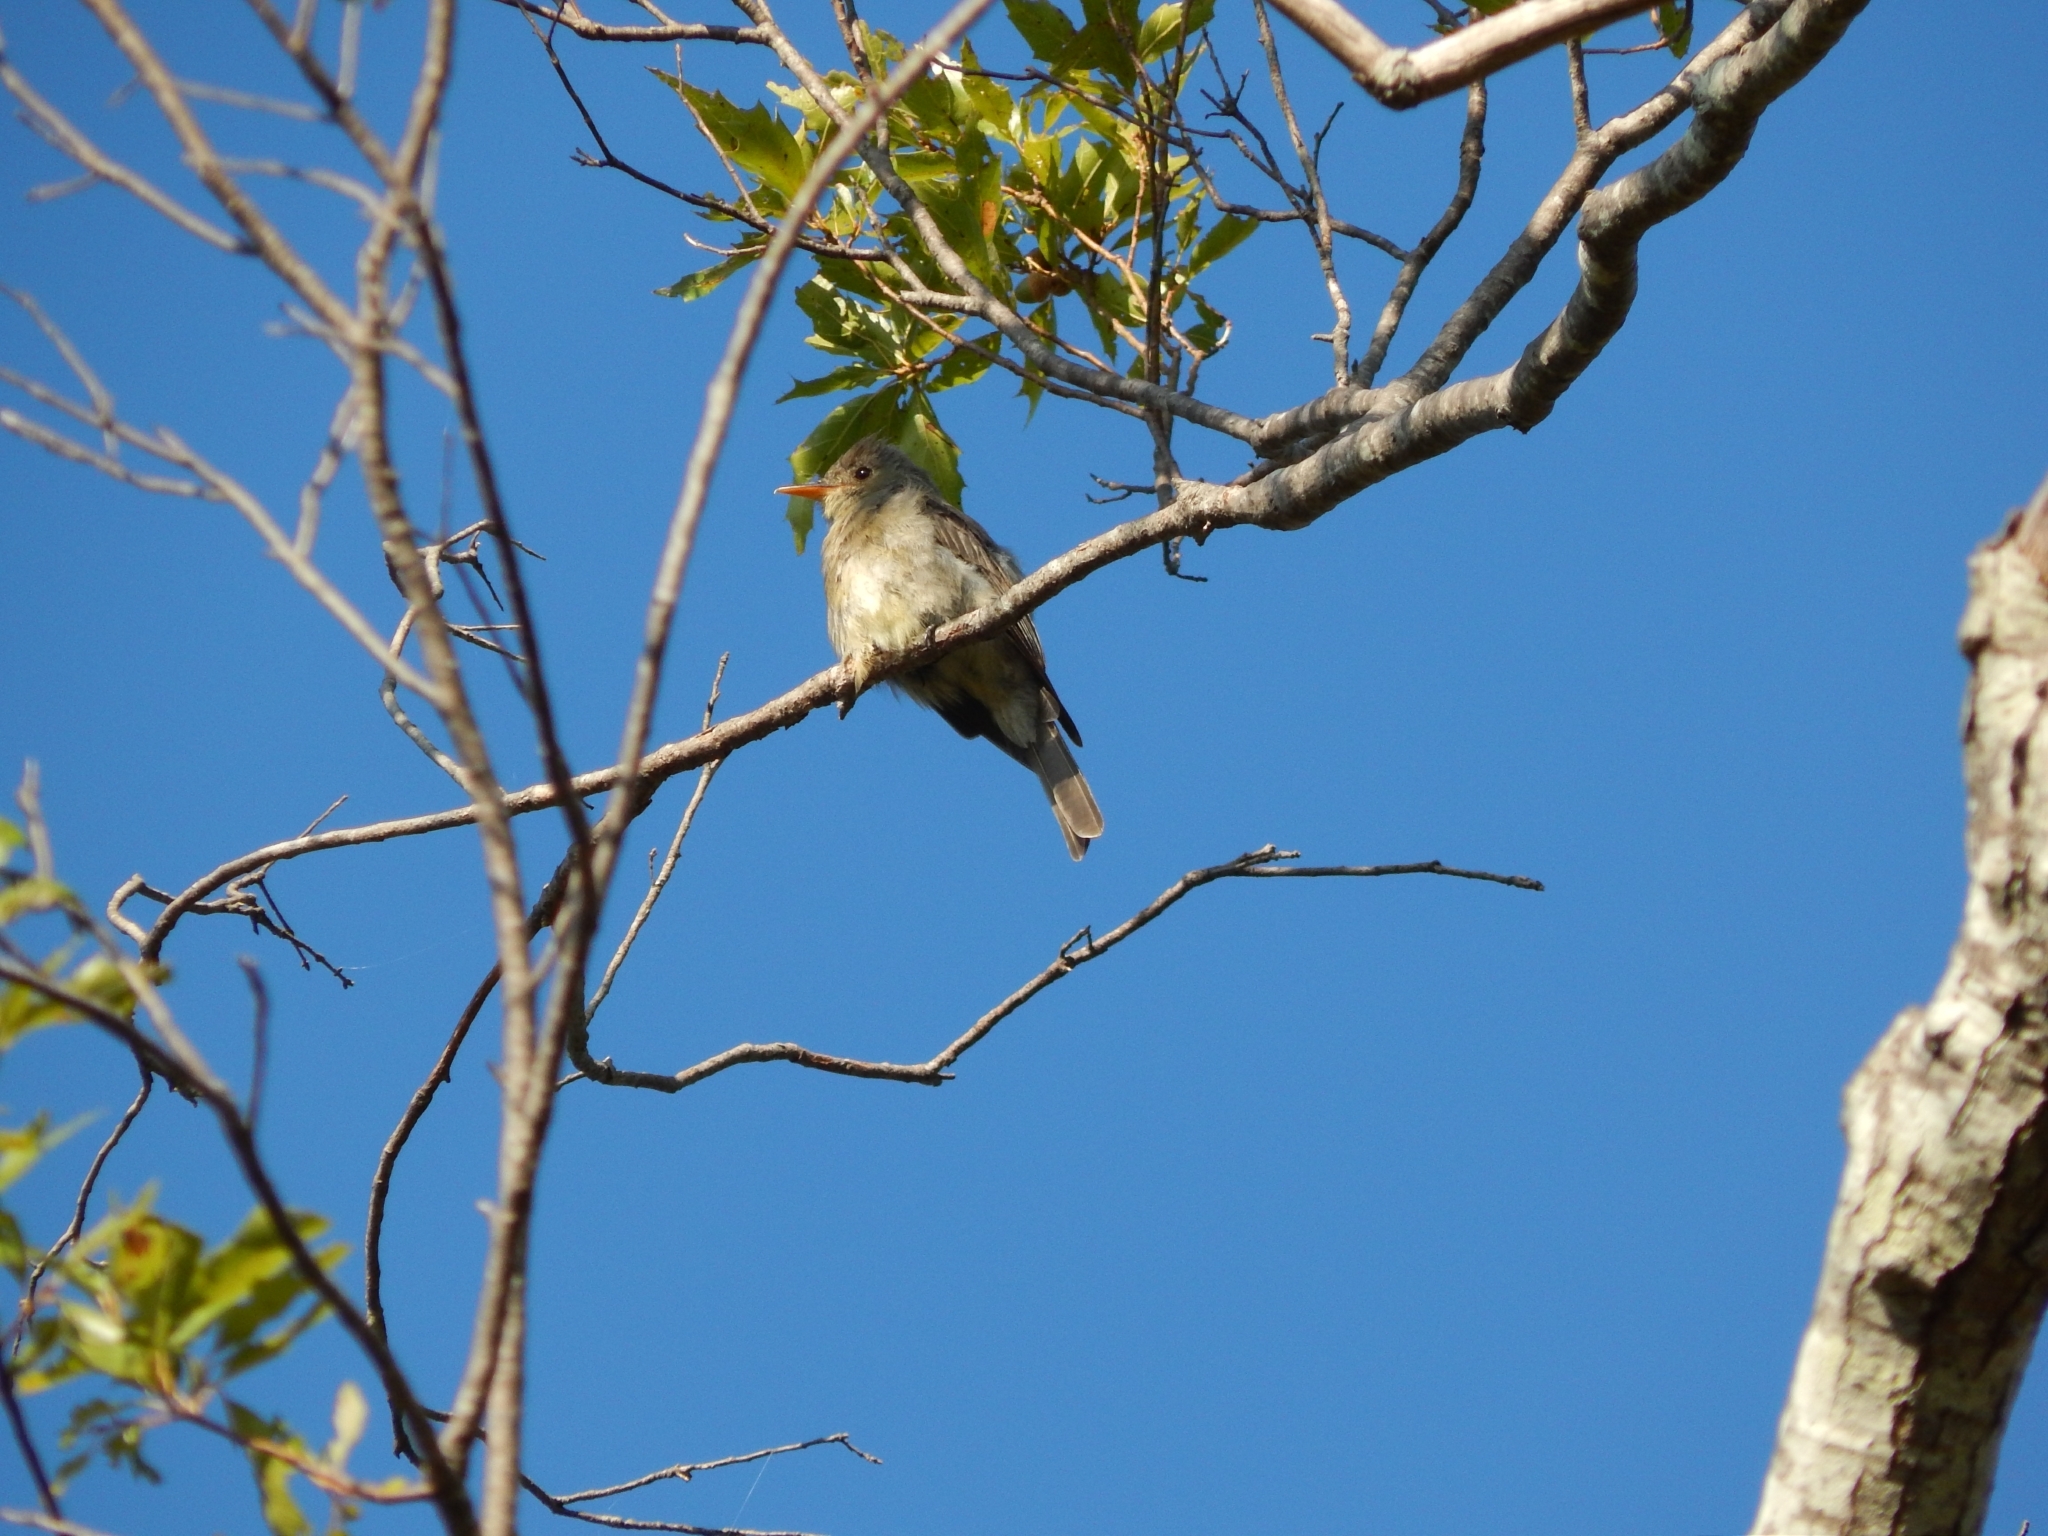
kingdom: Animalia
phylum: Chordata
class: Aves
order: Passeriformes
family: Tyrannidae
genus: Contopus
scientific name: Contopus pertinax
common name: Greater pewee
